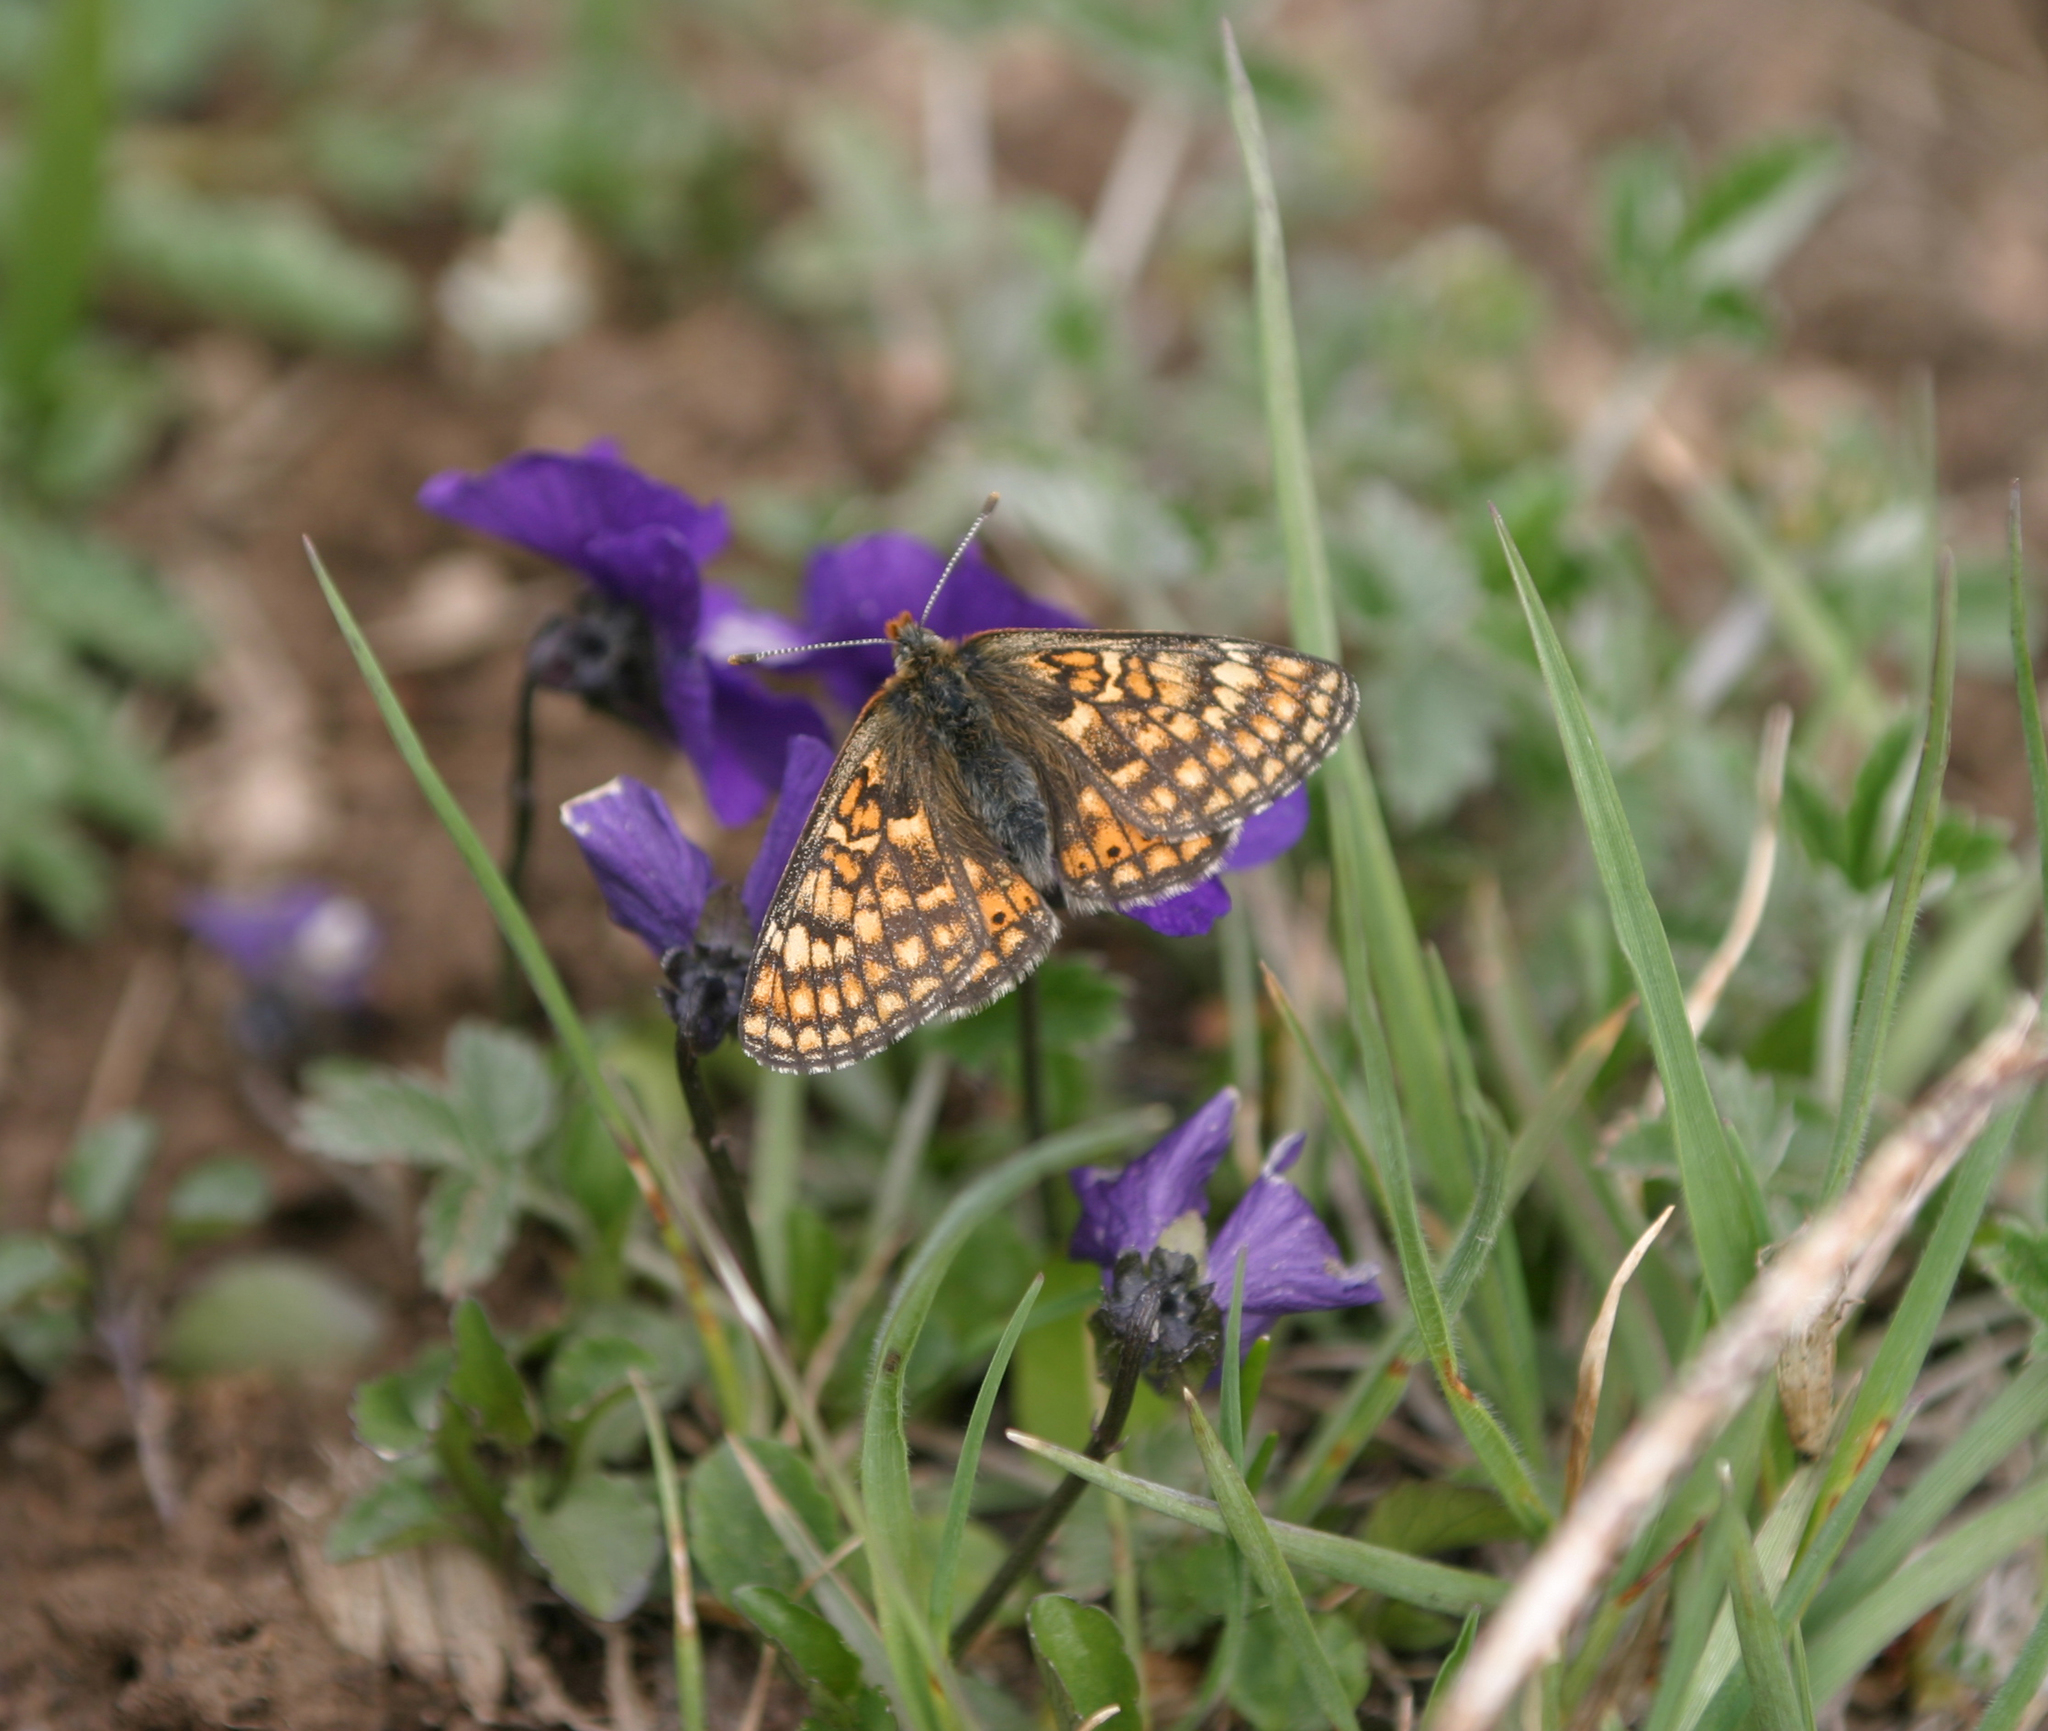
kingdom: Animalia
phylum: Arthropoda
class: Insecta
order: Lepidoptera
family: Nymphalidae
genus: Euphydryas
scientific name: Euphydryas asiatica
